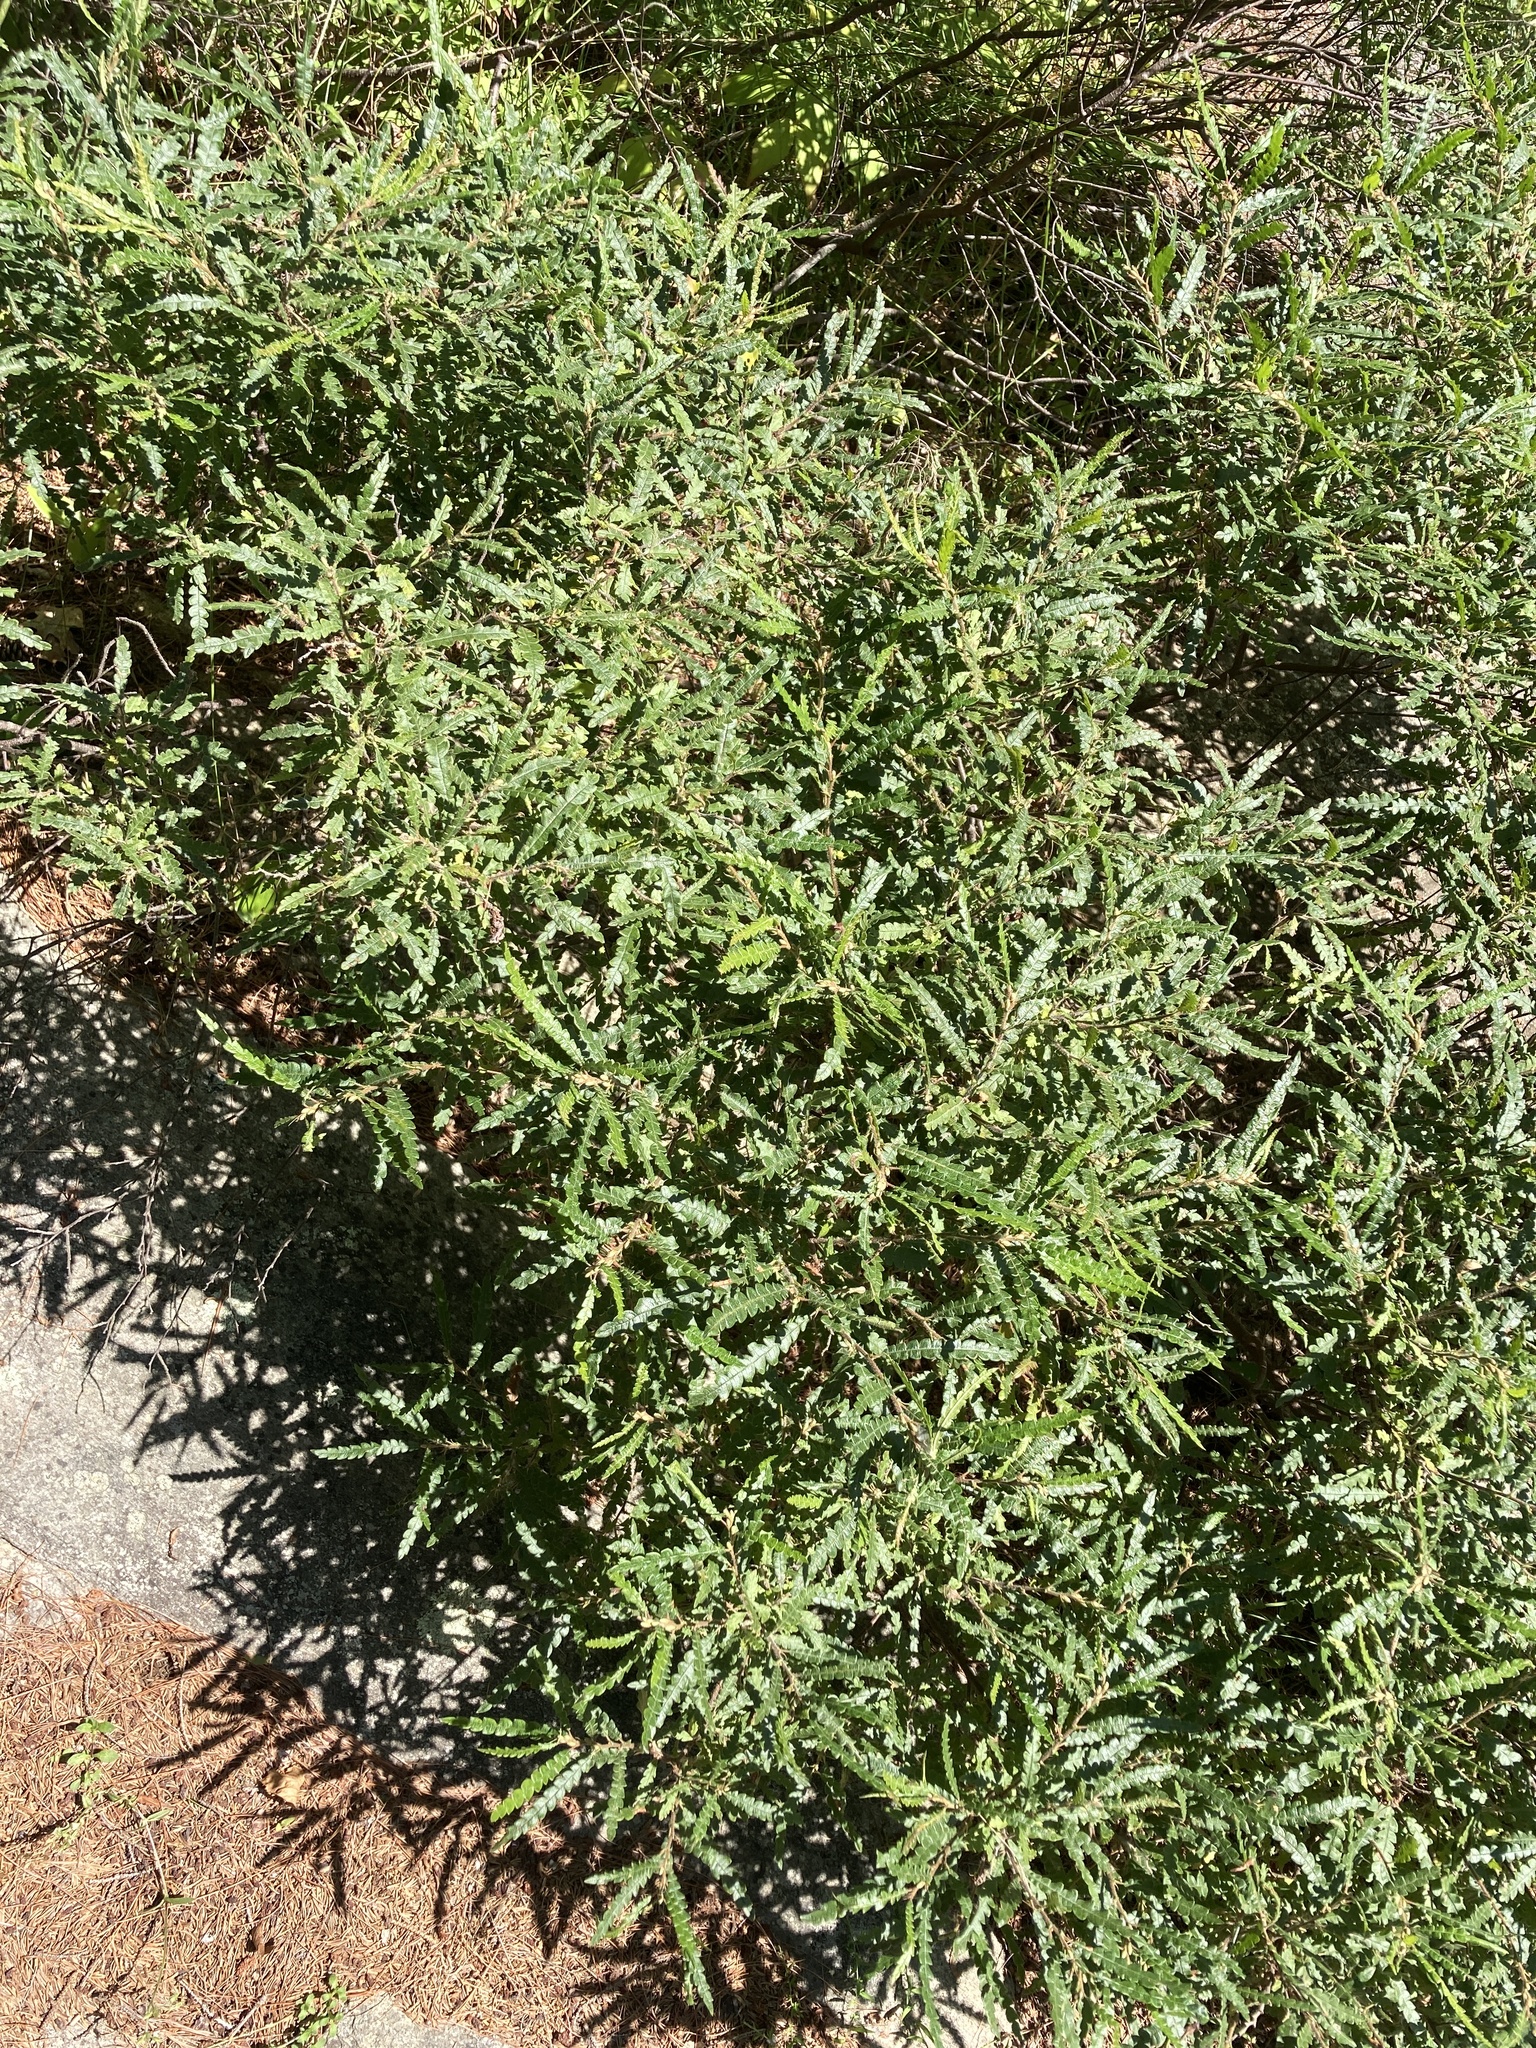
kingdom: Plantae
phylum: Tracheophyta
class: Magnoliopsida
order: Fagales
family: Myricaceae
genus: Comptonia
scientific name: Comptonia peregrina
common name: Sweet-fern
